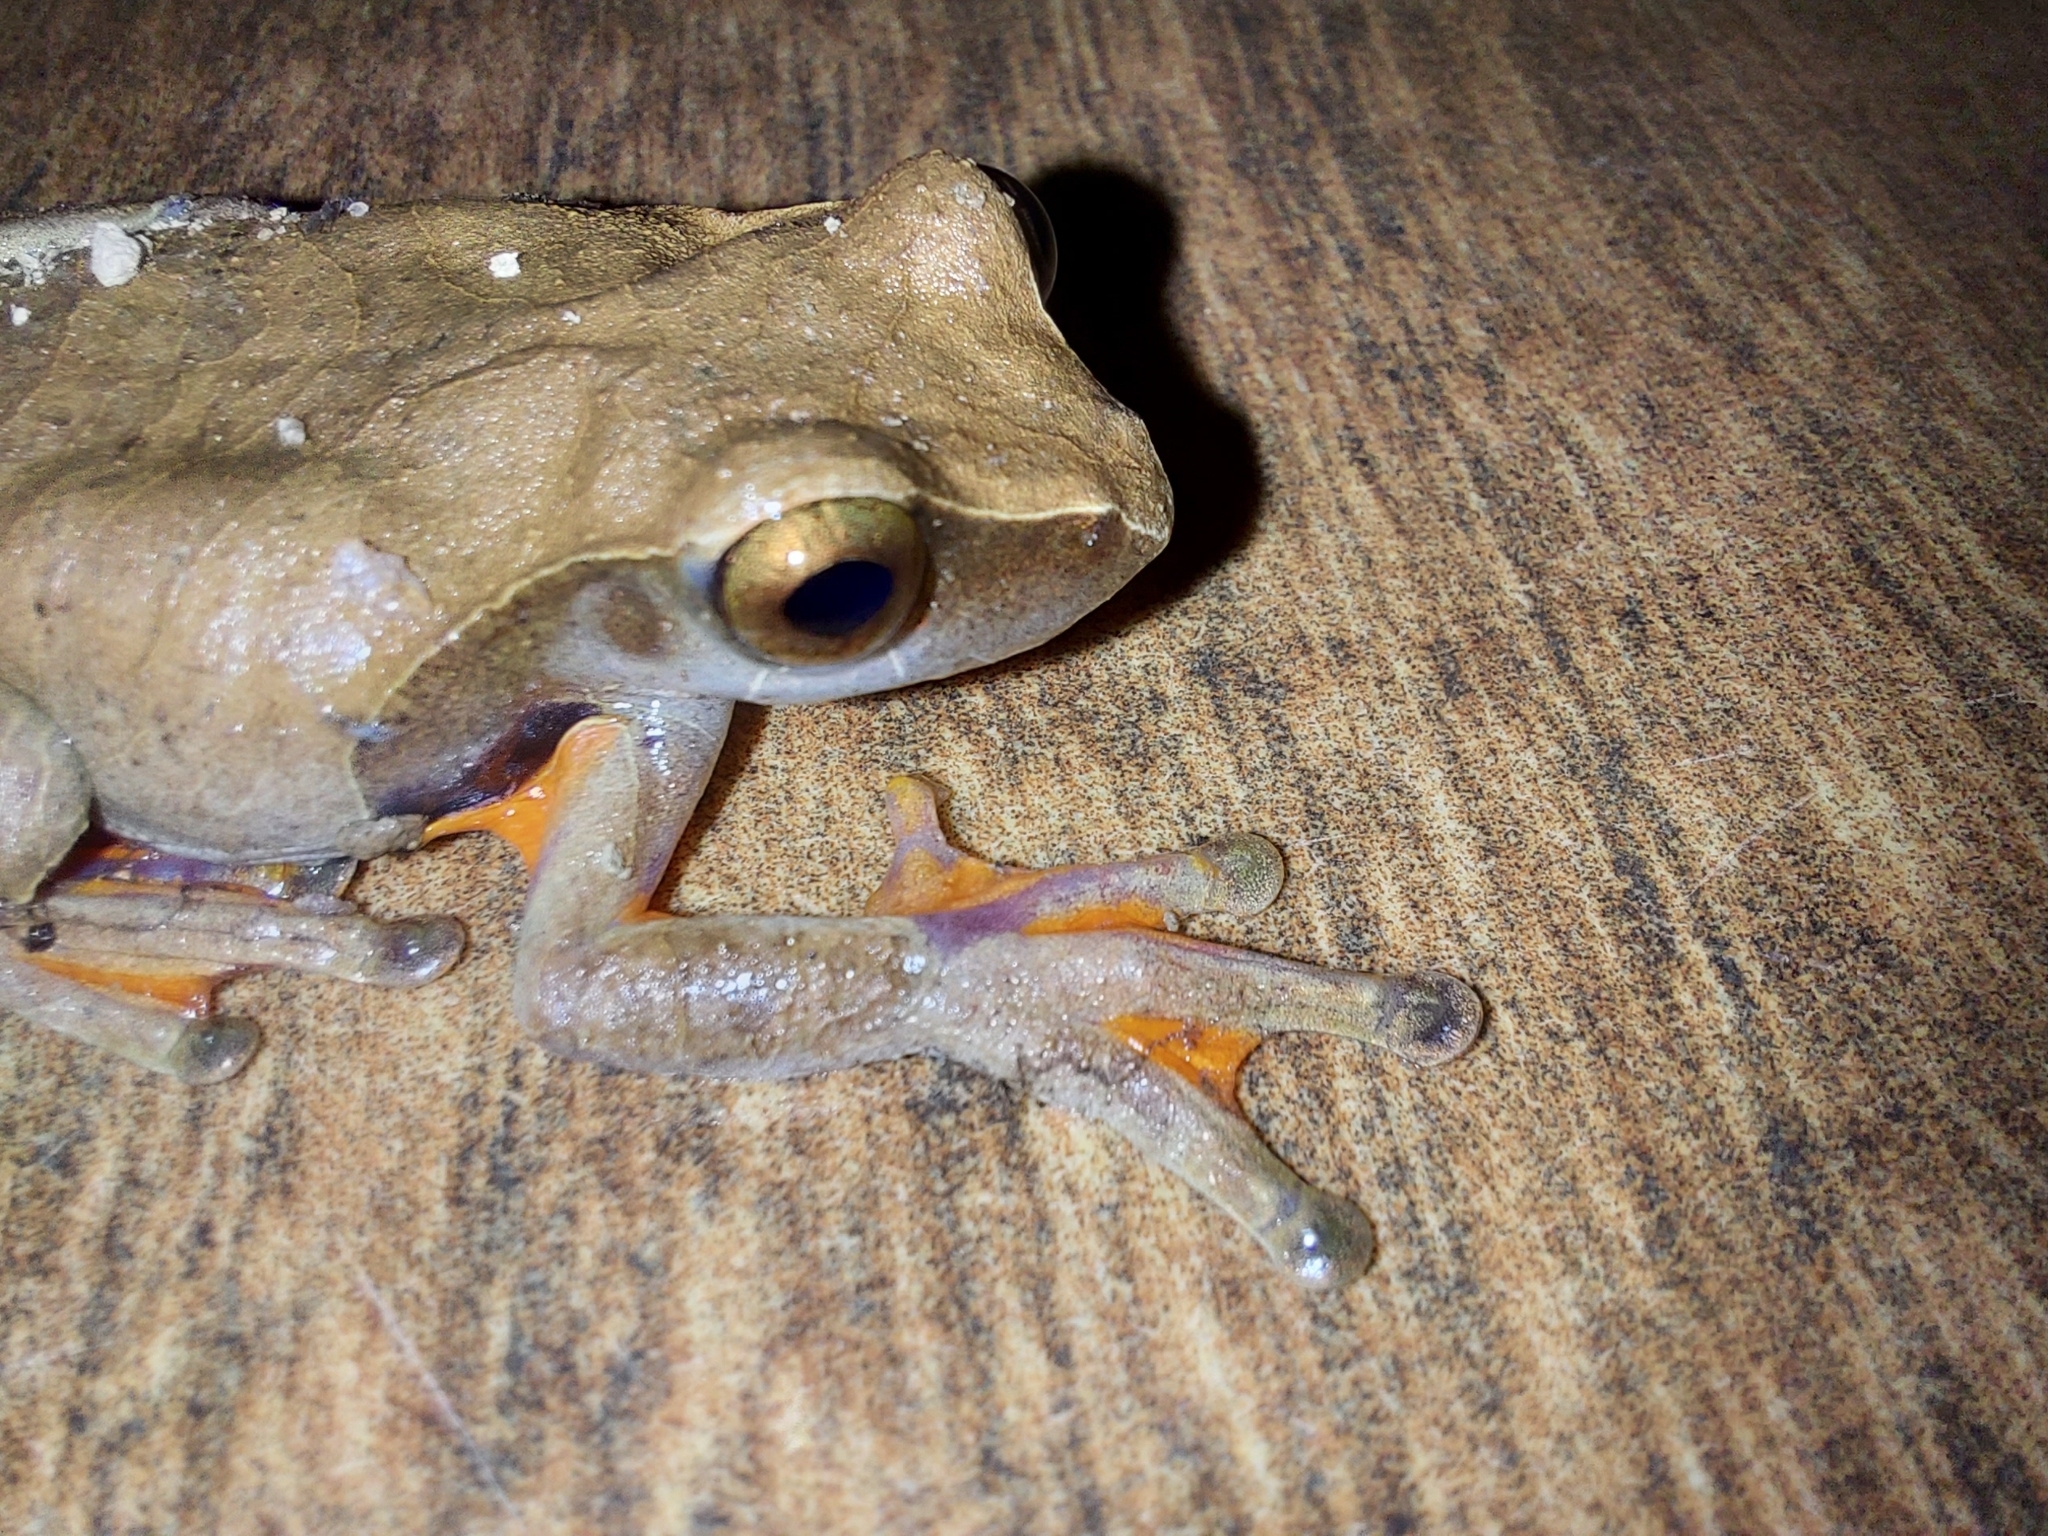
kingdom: Animalia
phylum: Chordata
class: Amphibia
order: Anura
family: Hylidae
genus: Dendropsophus
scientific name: Dendropsophus anceps
